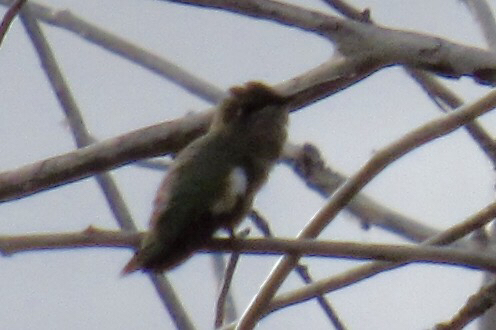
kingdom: Animalia
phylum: Chordata
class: Aves
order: Apodiformes
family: Trochilidae
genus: Calypte
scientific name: Calypte costae
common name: Costa's hummingbird
